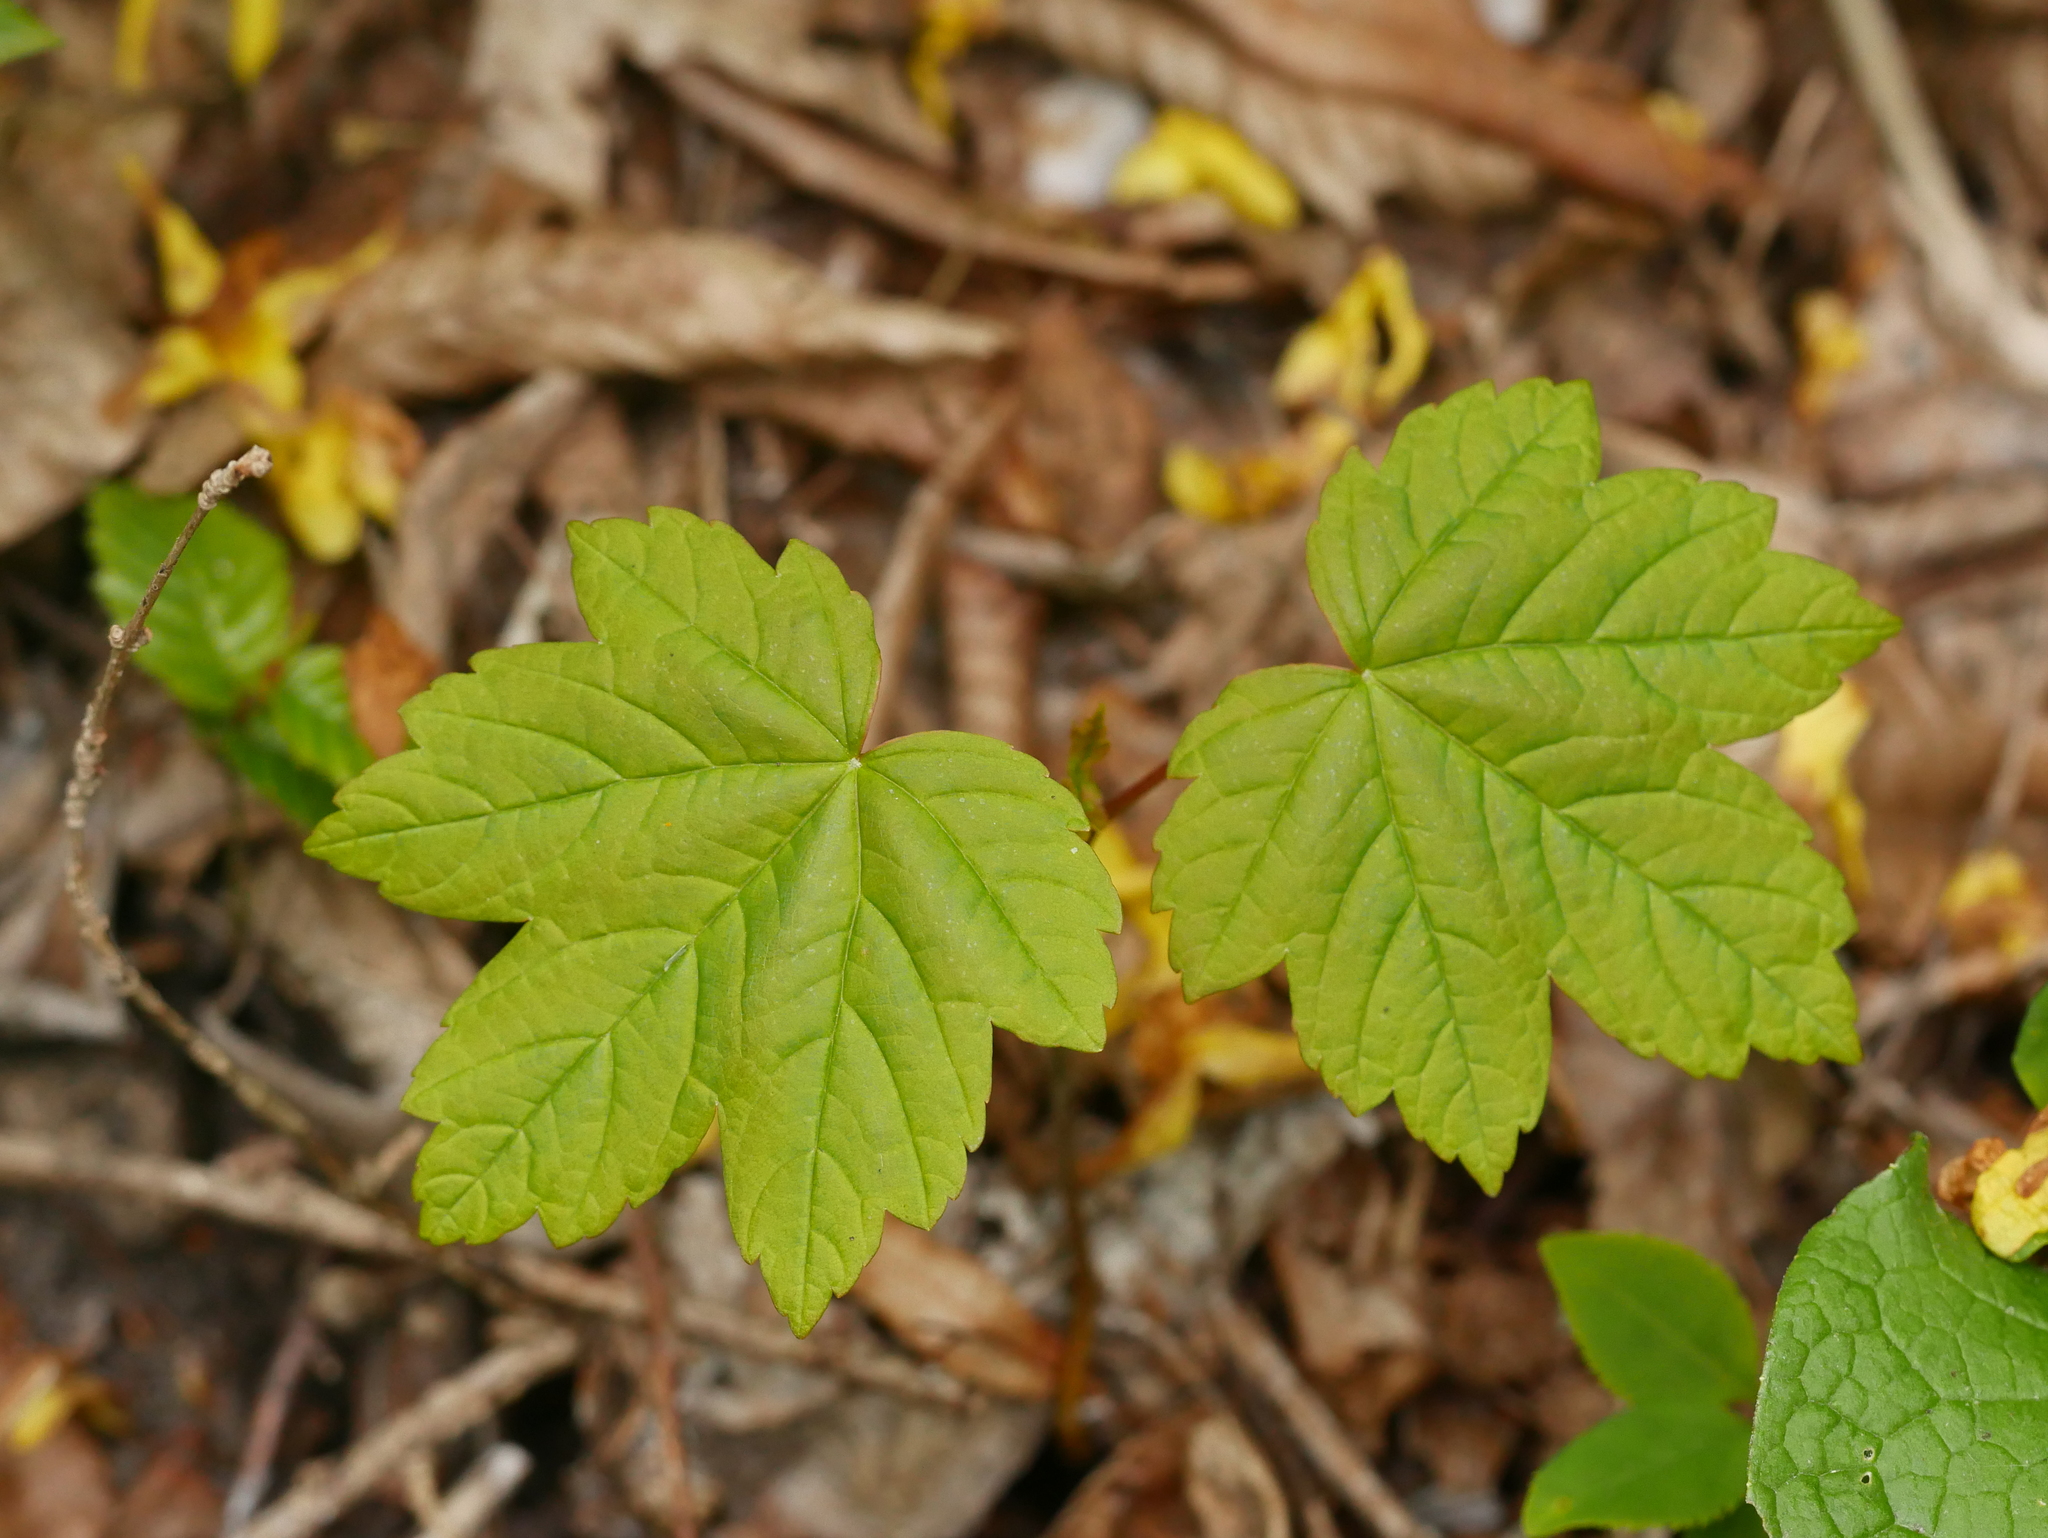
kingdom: Plantae
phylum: Tracheophyta
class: Magnoliopsida
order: Sapindales
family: Sapindaceae
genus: Acer
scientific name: Acer pseudoplatanus
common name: Sycamore
